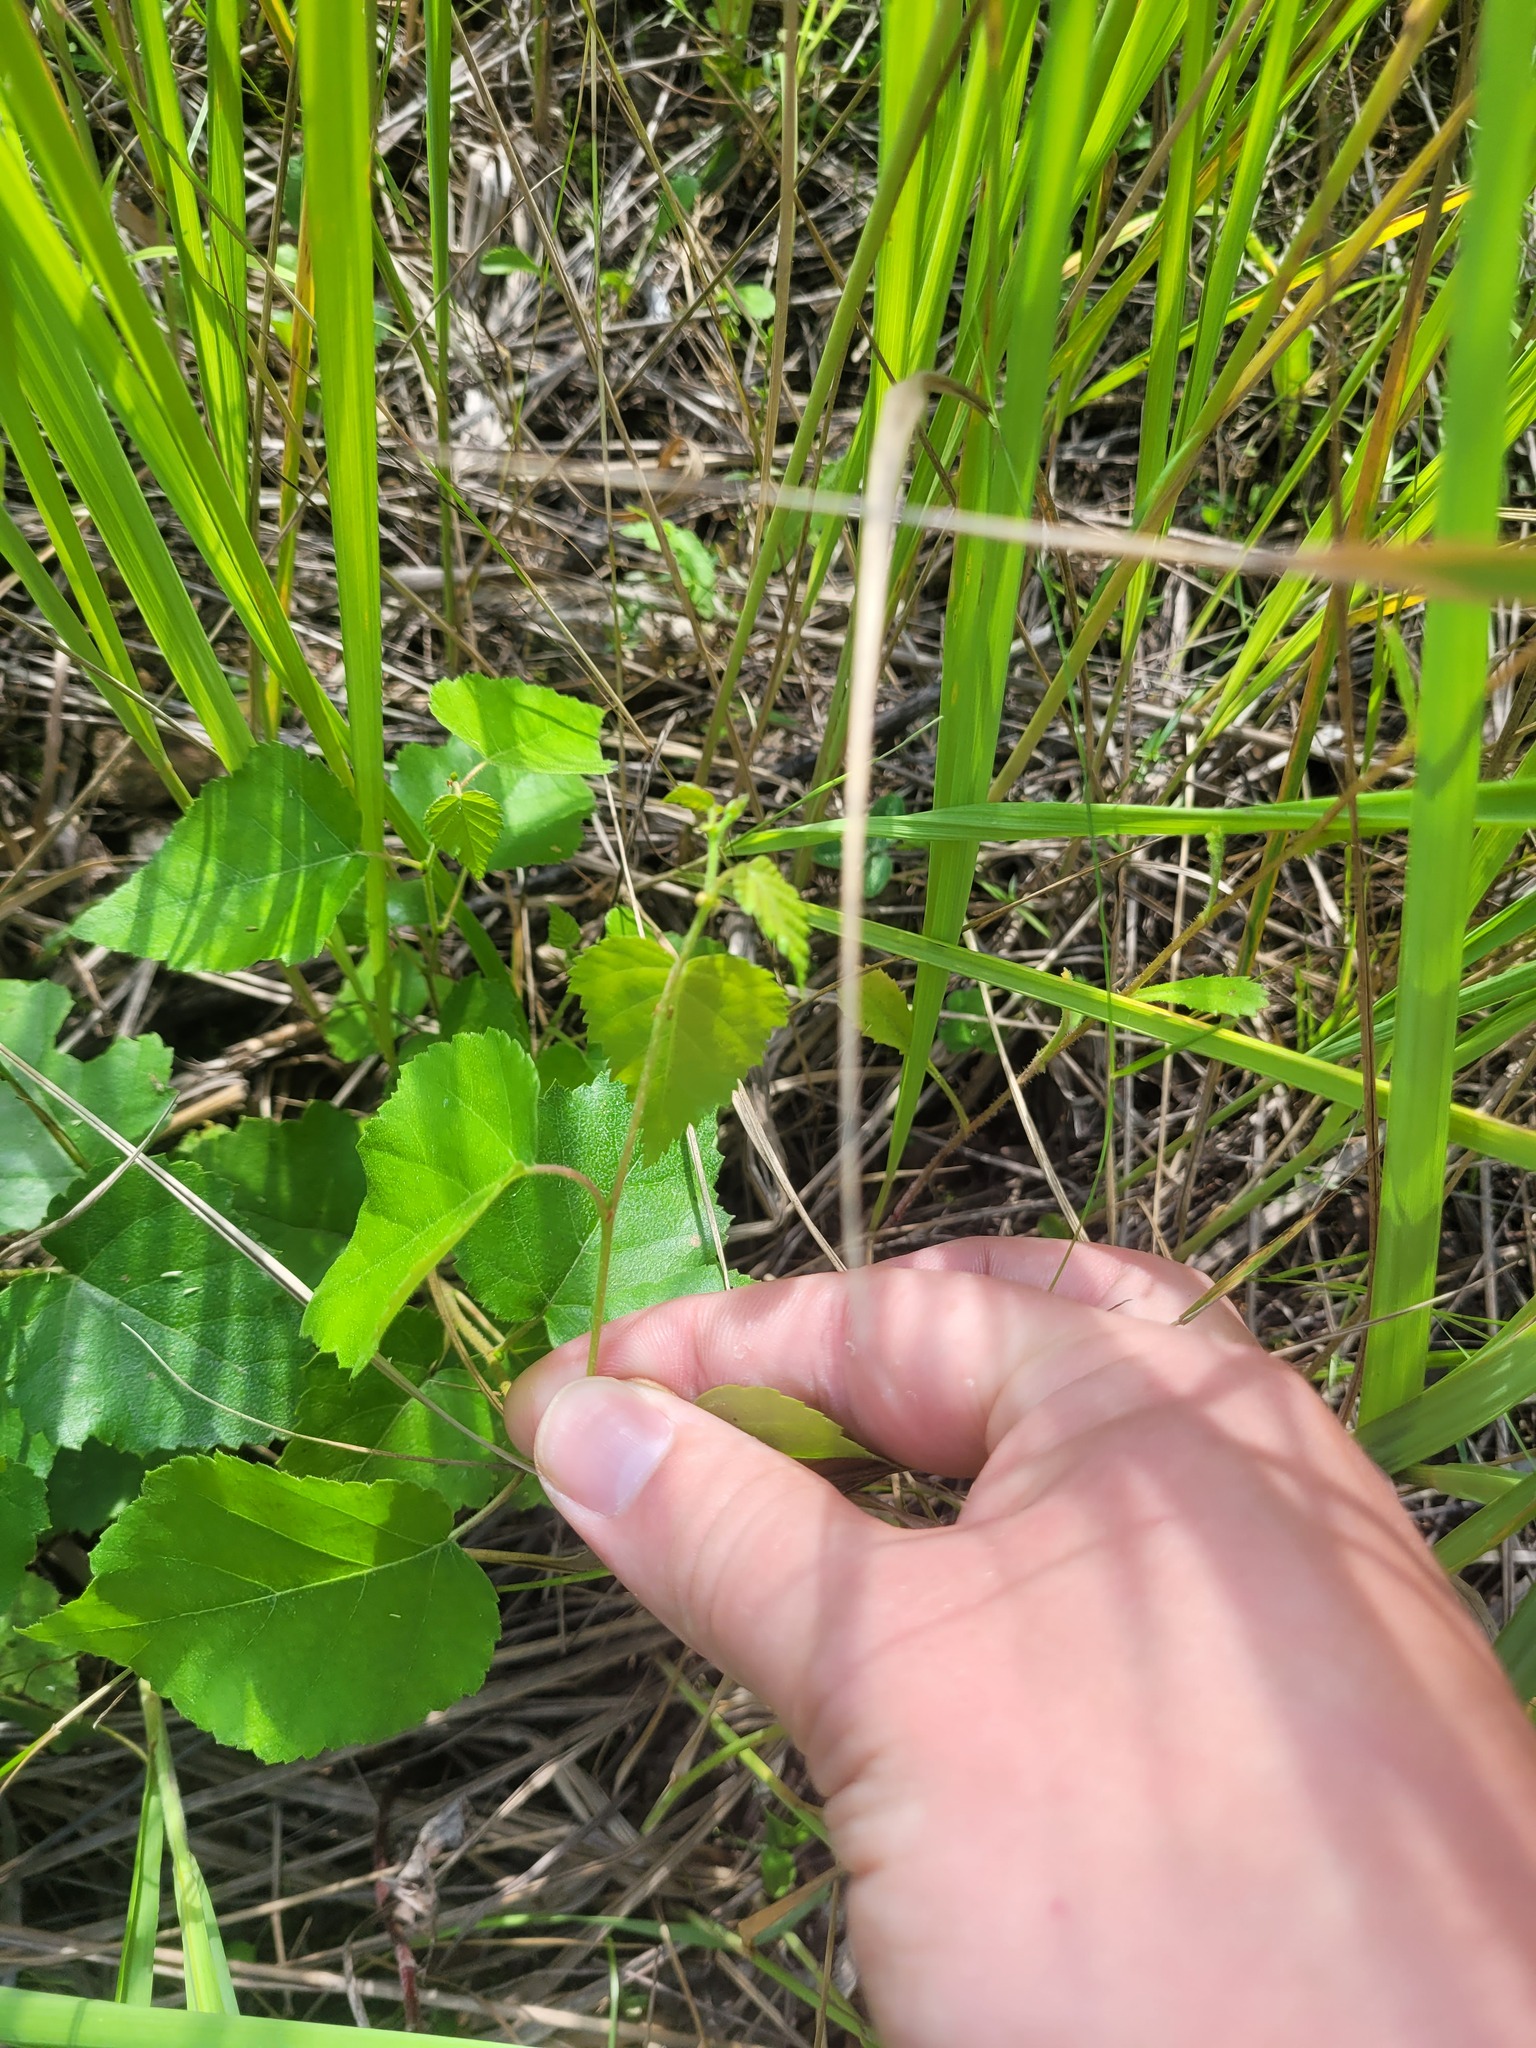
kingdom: Plantae
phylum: Tracheophyta
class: Magnoliopsida
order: Fagales
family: Betulaceae
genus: Betula
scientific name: Betula pendula
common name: Silver birch
